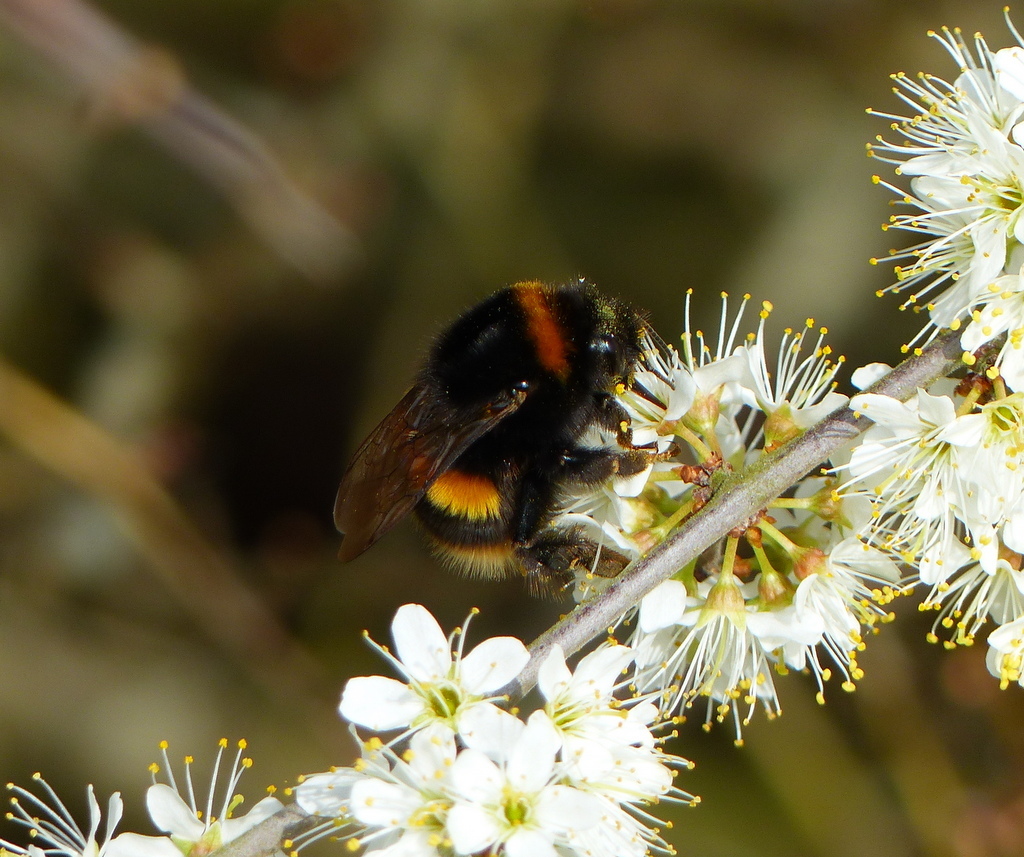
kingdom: Animalia
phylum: Arthropoda
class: Insecta
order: Hymenoptera
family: Apidae
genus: Bombus
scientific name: Bombus terrestris
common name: Buff-tailed bumblebee
